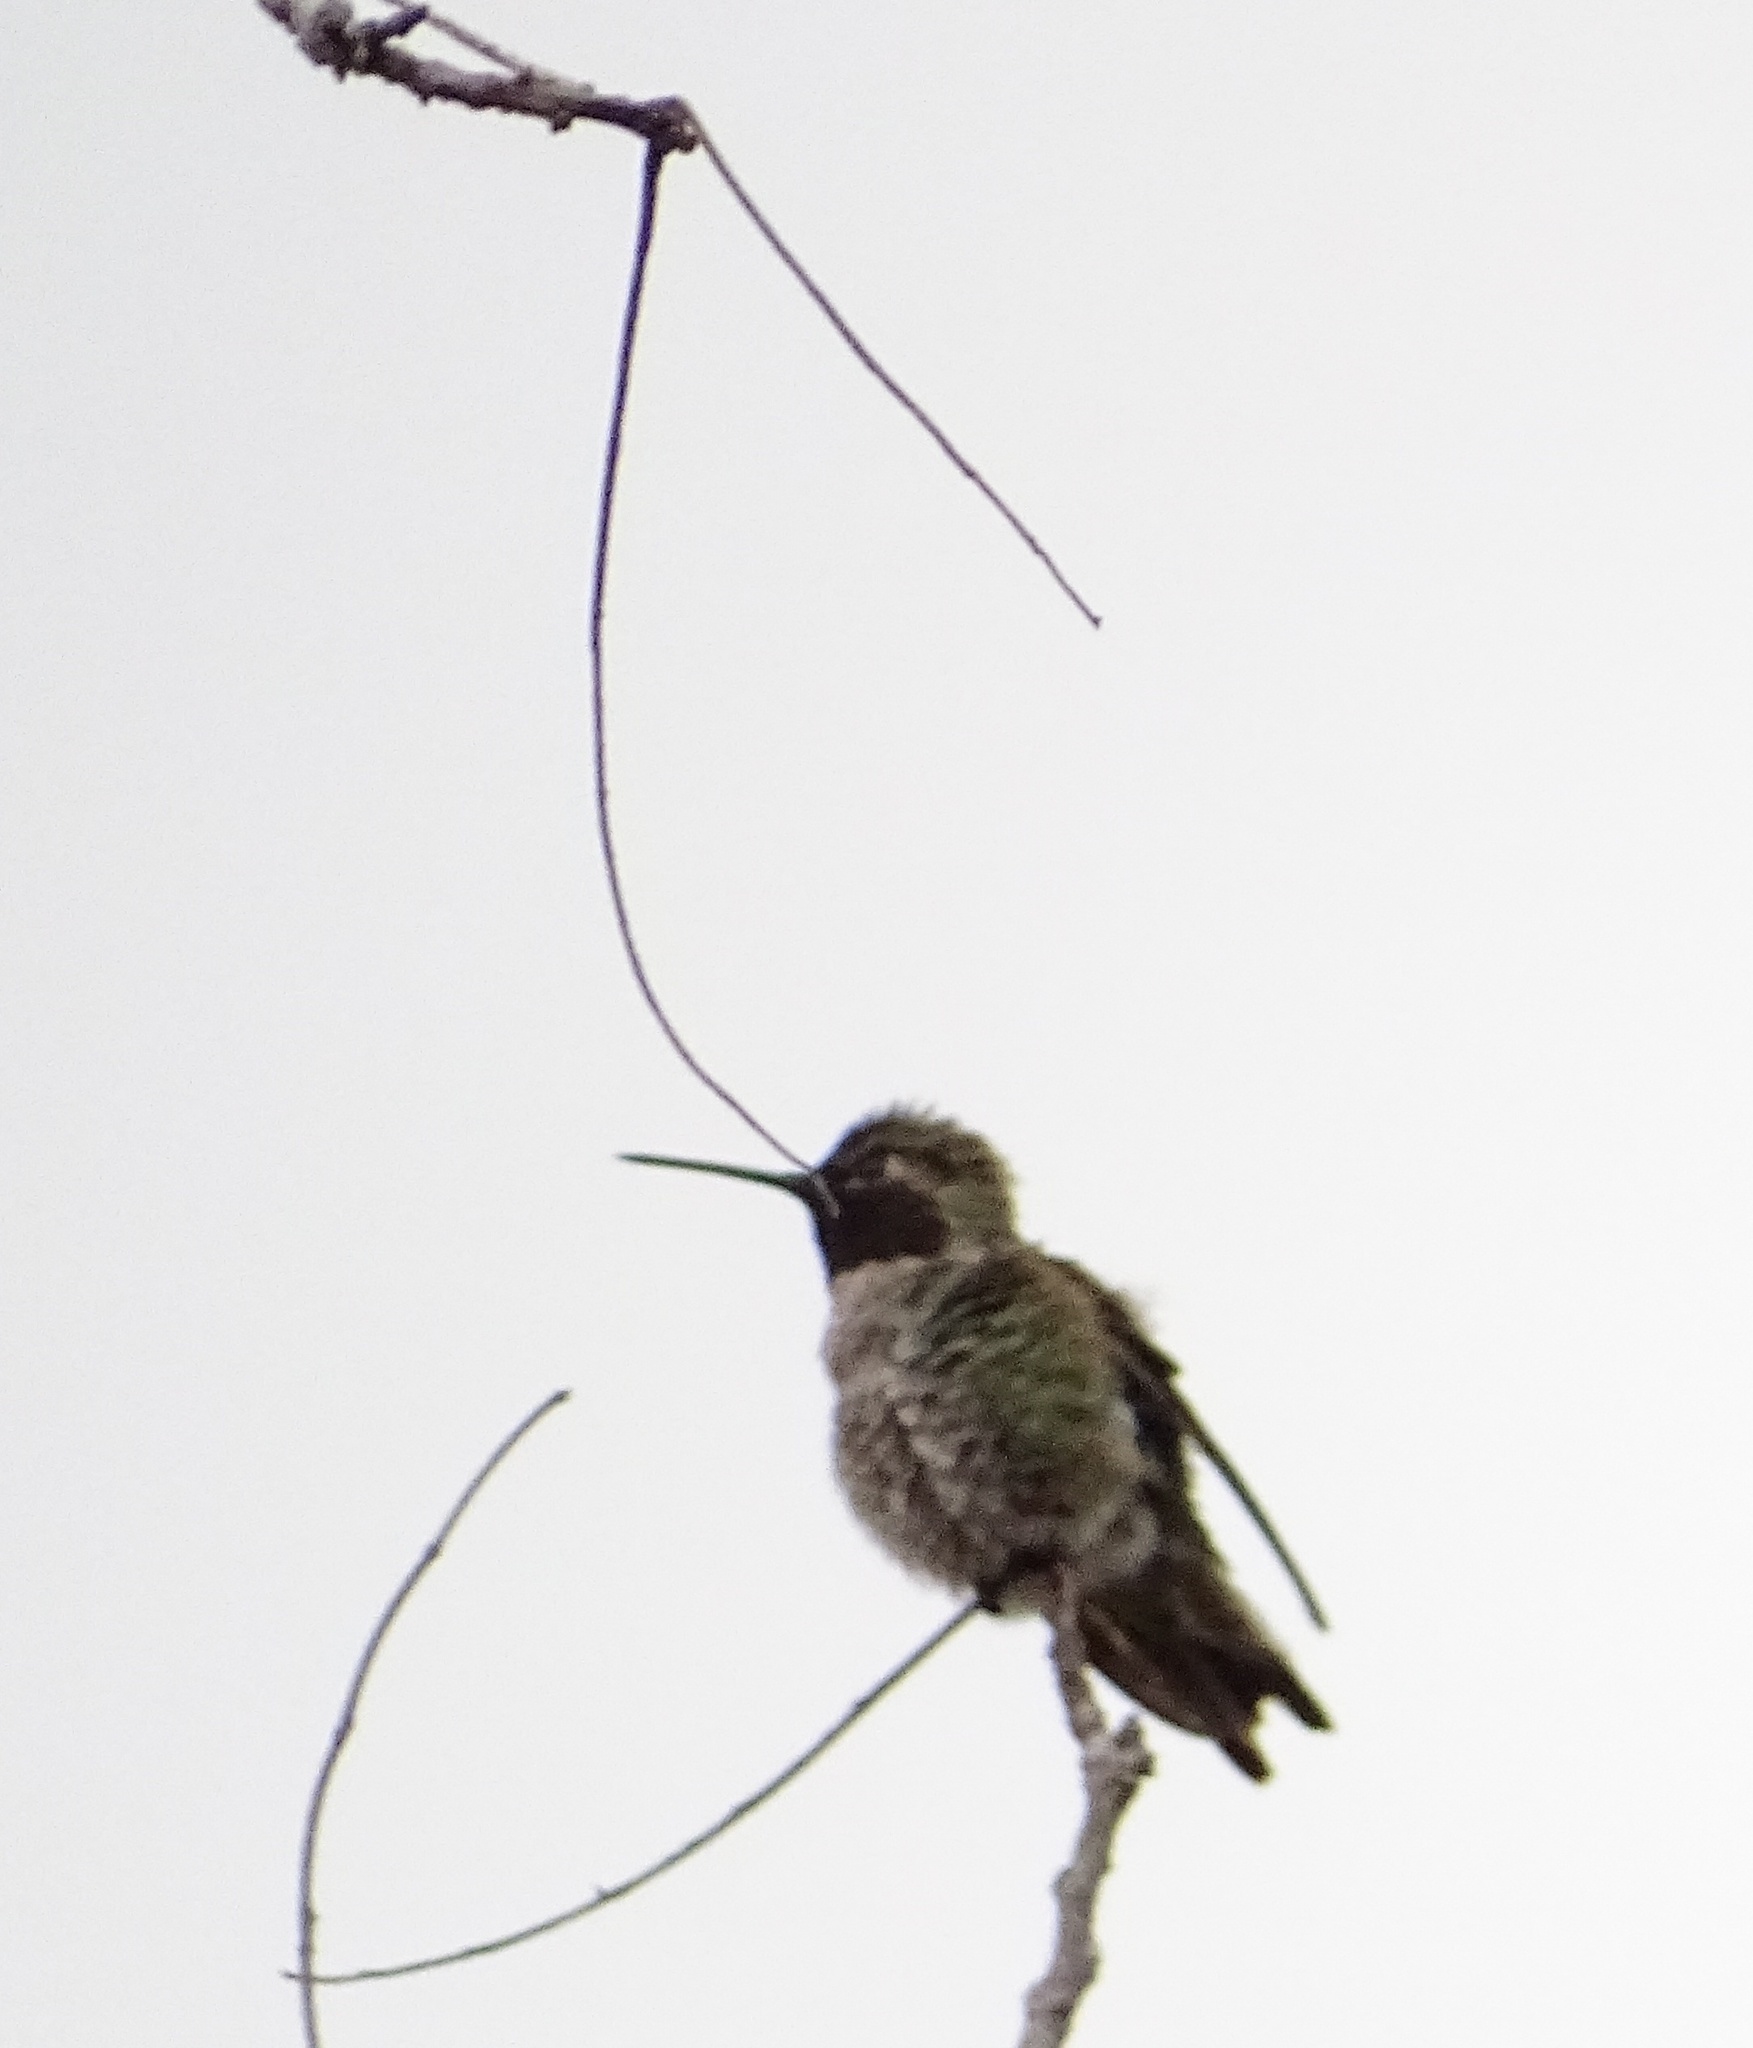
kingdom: Animalia
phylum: Chordata
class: Aves
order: Apodiformes
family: Trochilidae
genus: Calypte
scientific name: Calypte anna
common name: Anna's hummingbird
